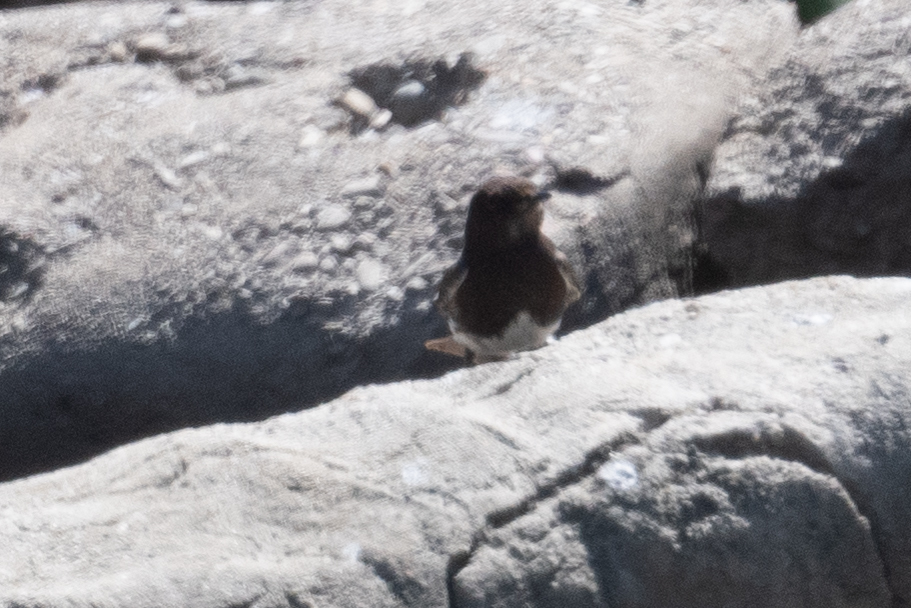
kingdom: Animalia
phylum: Chordata
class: Aves
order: Passeriformes
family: Tyrannidae
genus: Sayornis
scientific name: Sayornis nigricans
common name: Black phoebe
